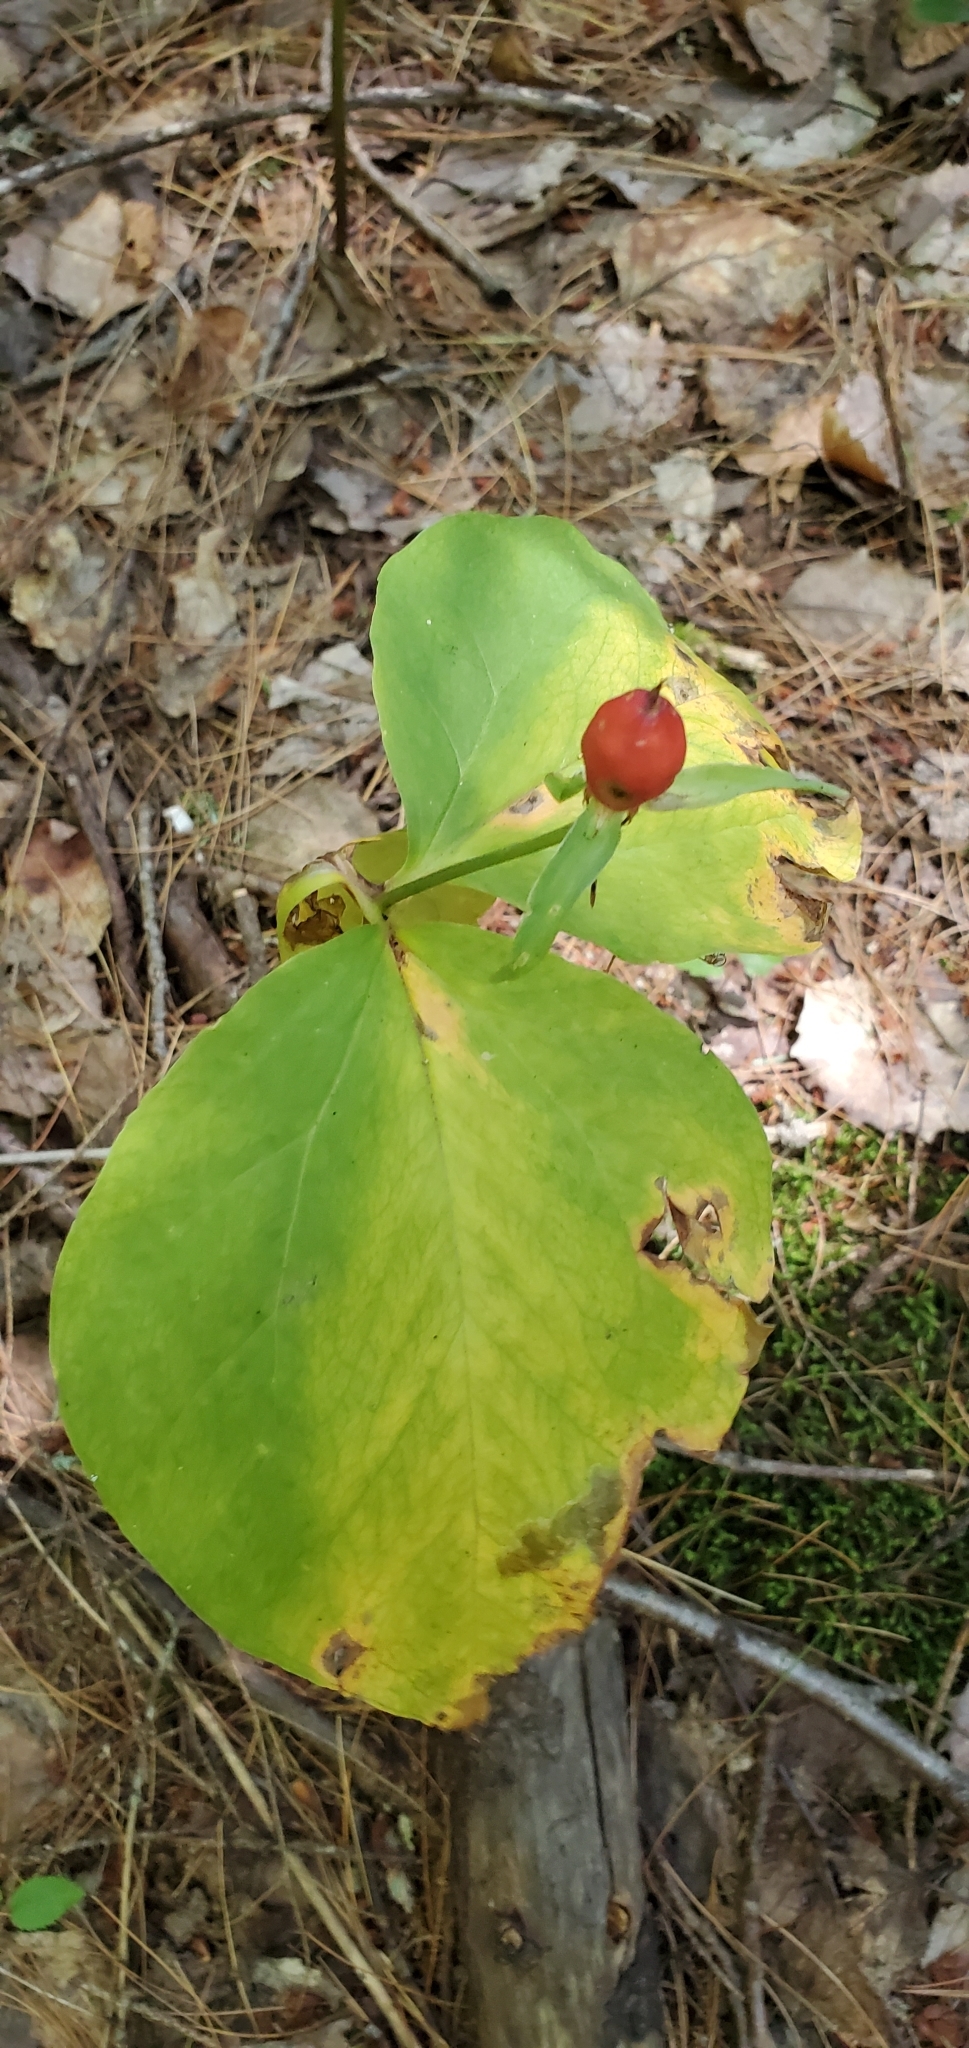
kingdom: Plantae
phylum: Tracheophyta
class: Liliopsida
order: Liliales
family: Melanthiaceae
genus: Trillium
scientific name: Trillium undulatum
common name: Paint trillium
